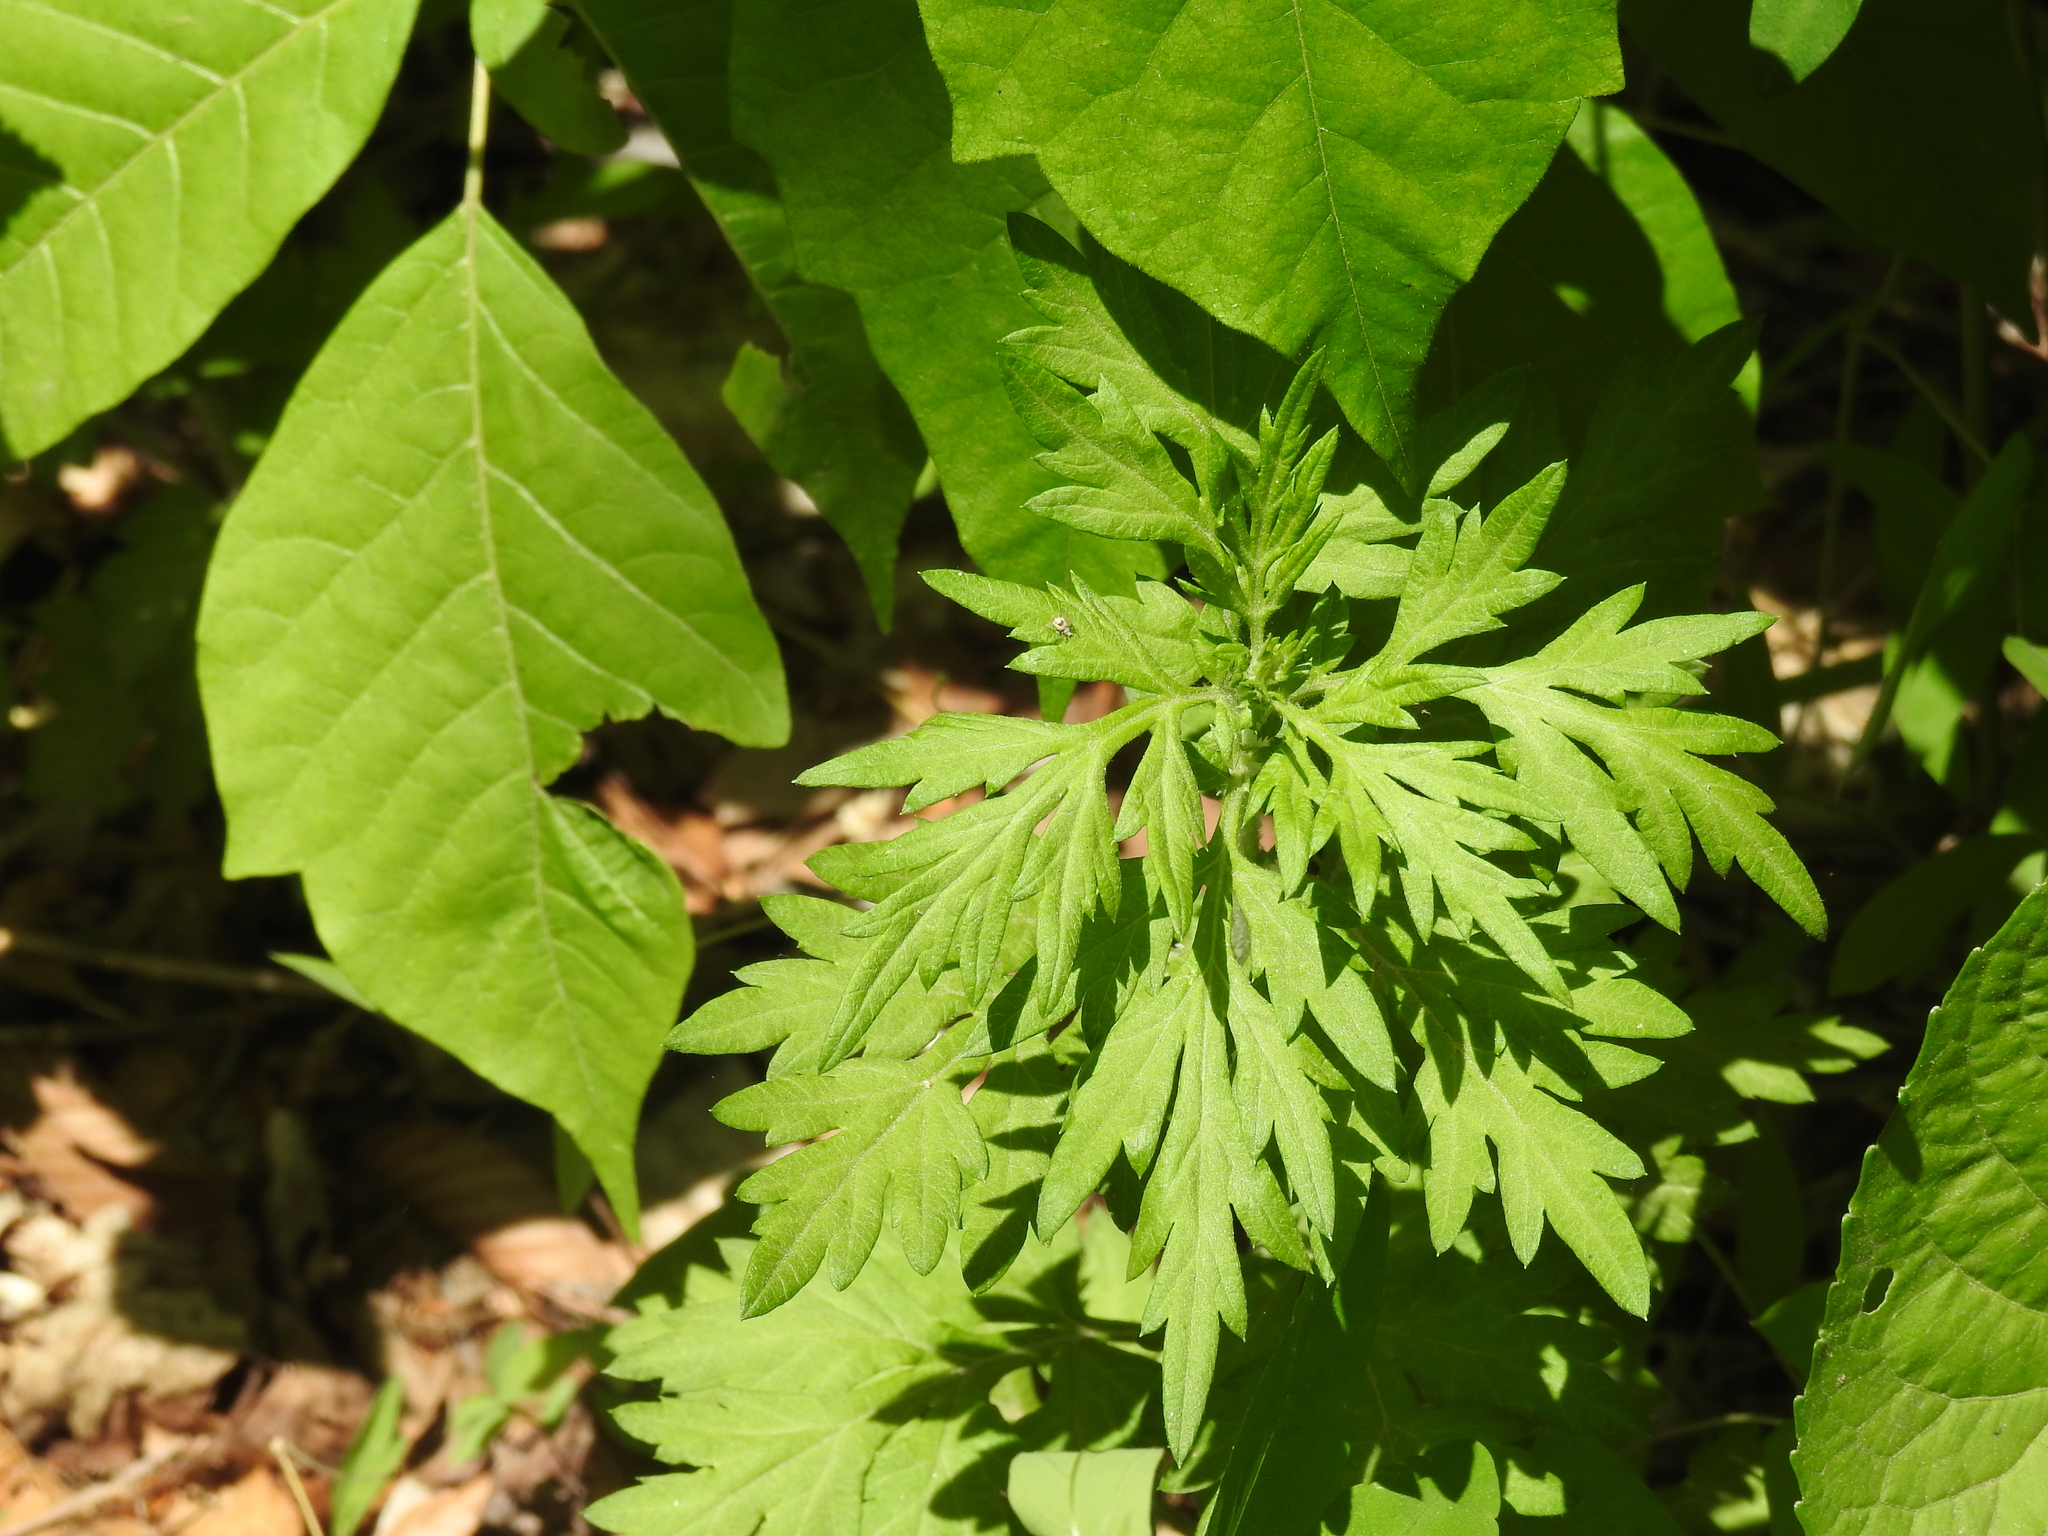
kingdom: Plantae
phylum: Tracheophyta
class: Magnoliopsida
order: Asterales
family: Asteraceae
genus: Artemisia
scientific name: Artemisia vulgaris
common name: Mugwort
